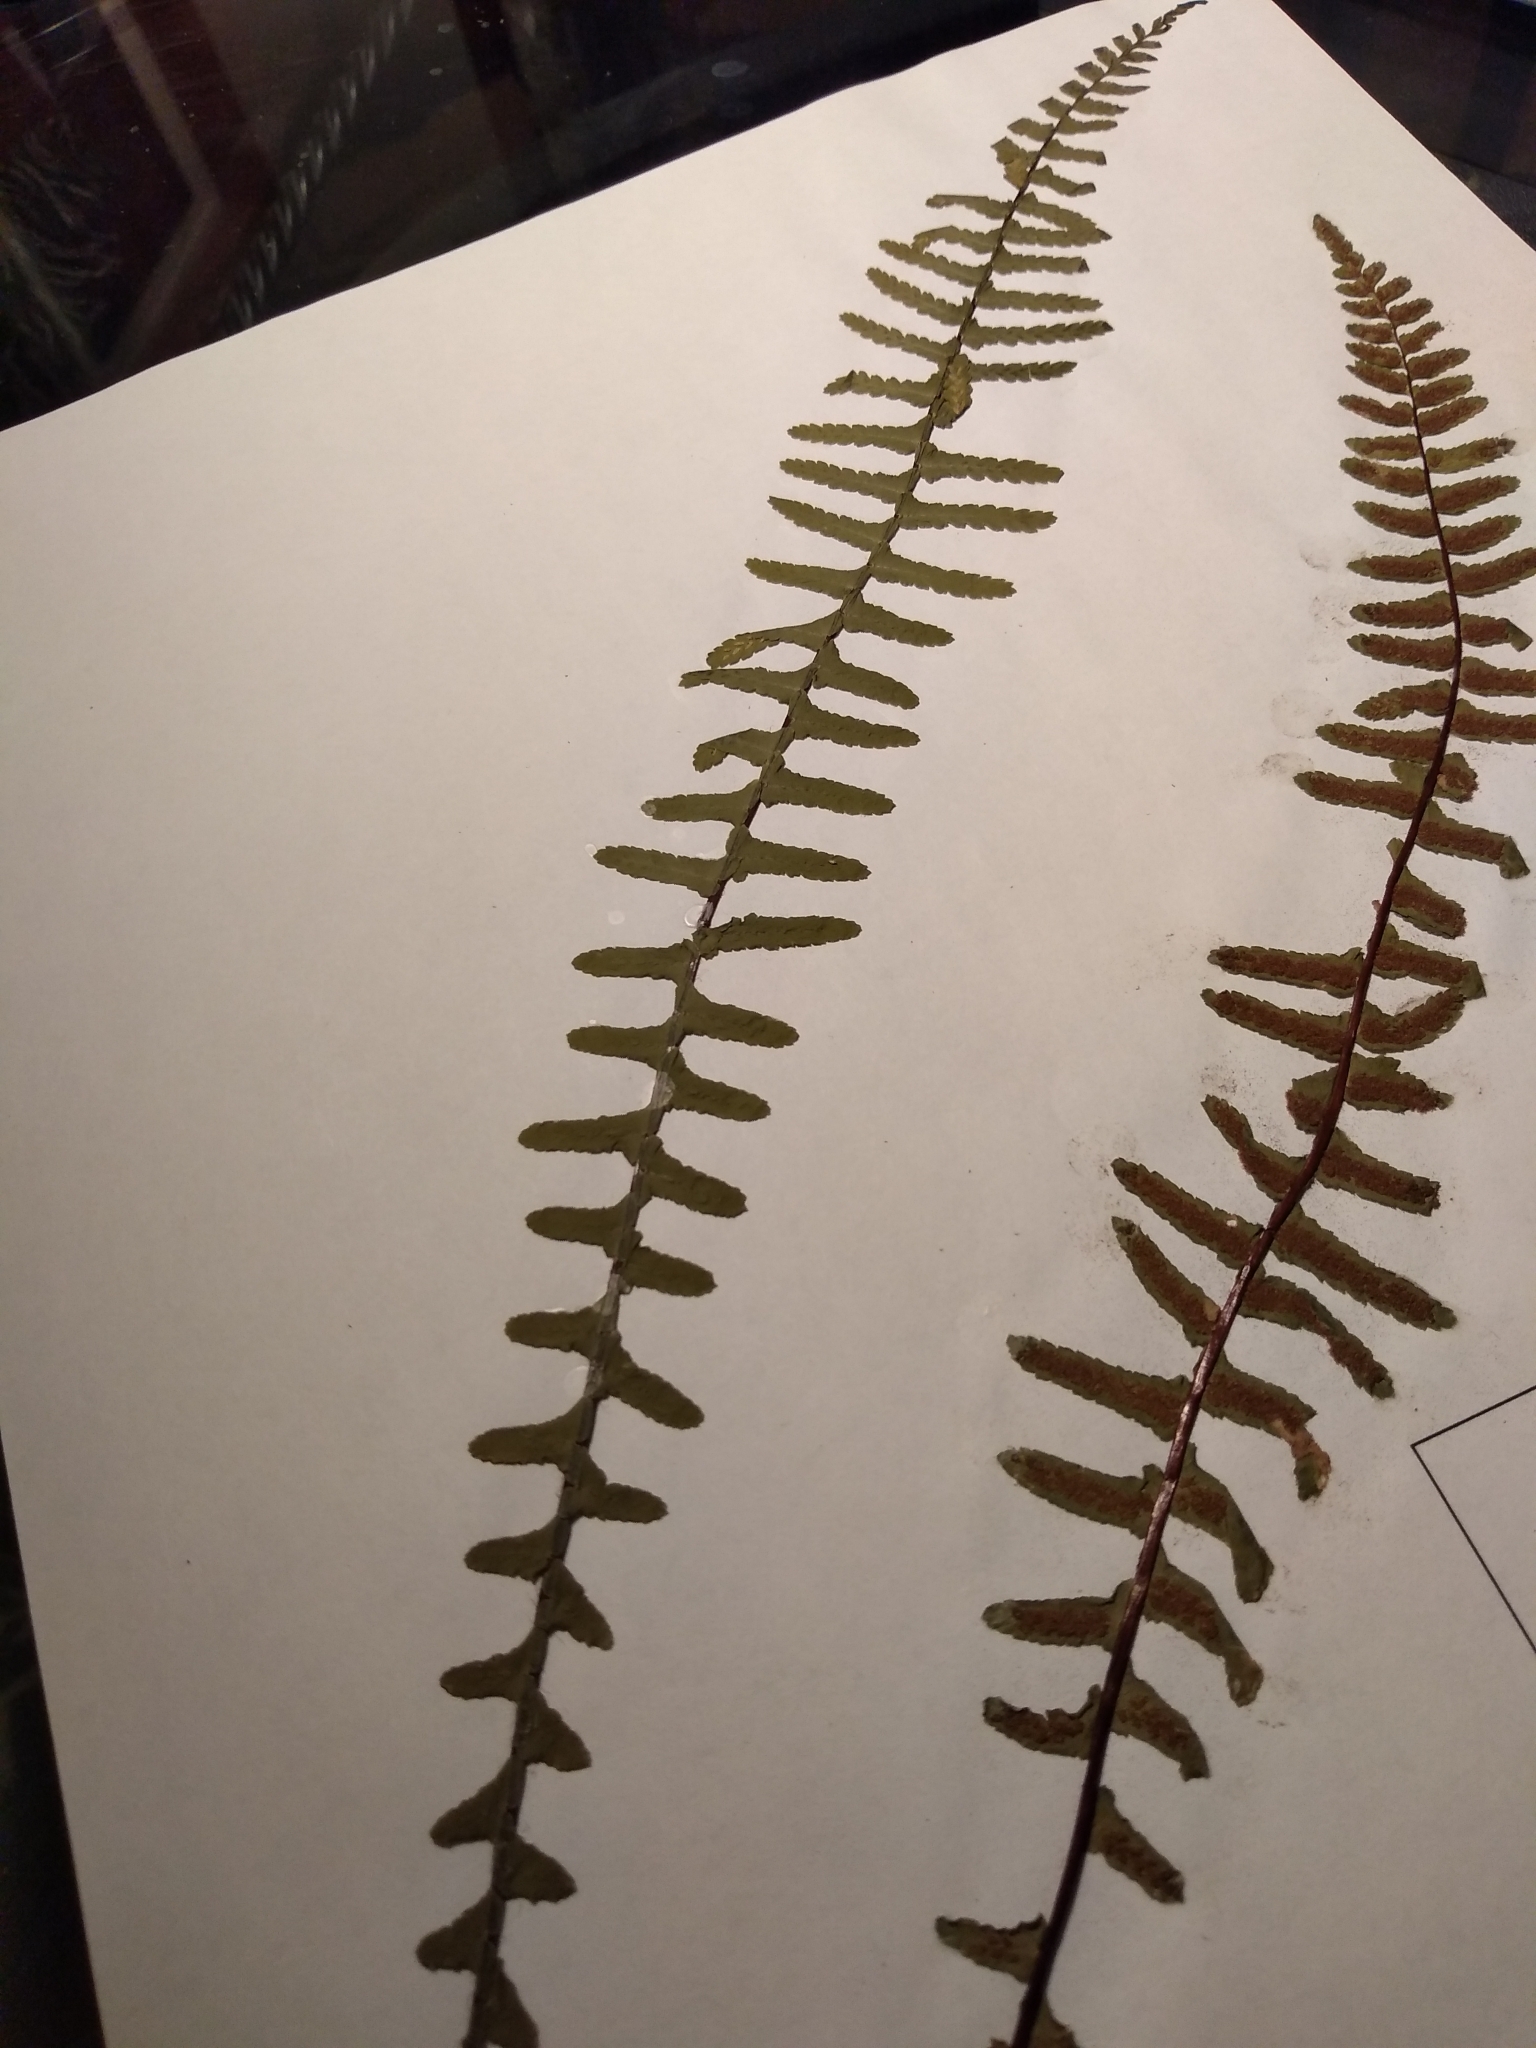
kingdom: Plantae
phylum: Tracheophyta
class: Polypodiopsida
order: Polypodiales
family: Aspleniaceae
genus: Asplenium
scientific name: Asplenium platyneuron
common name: Ebony spleenwort
